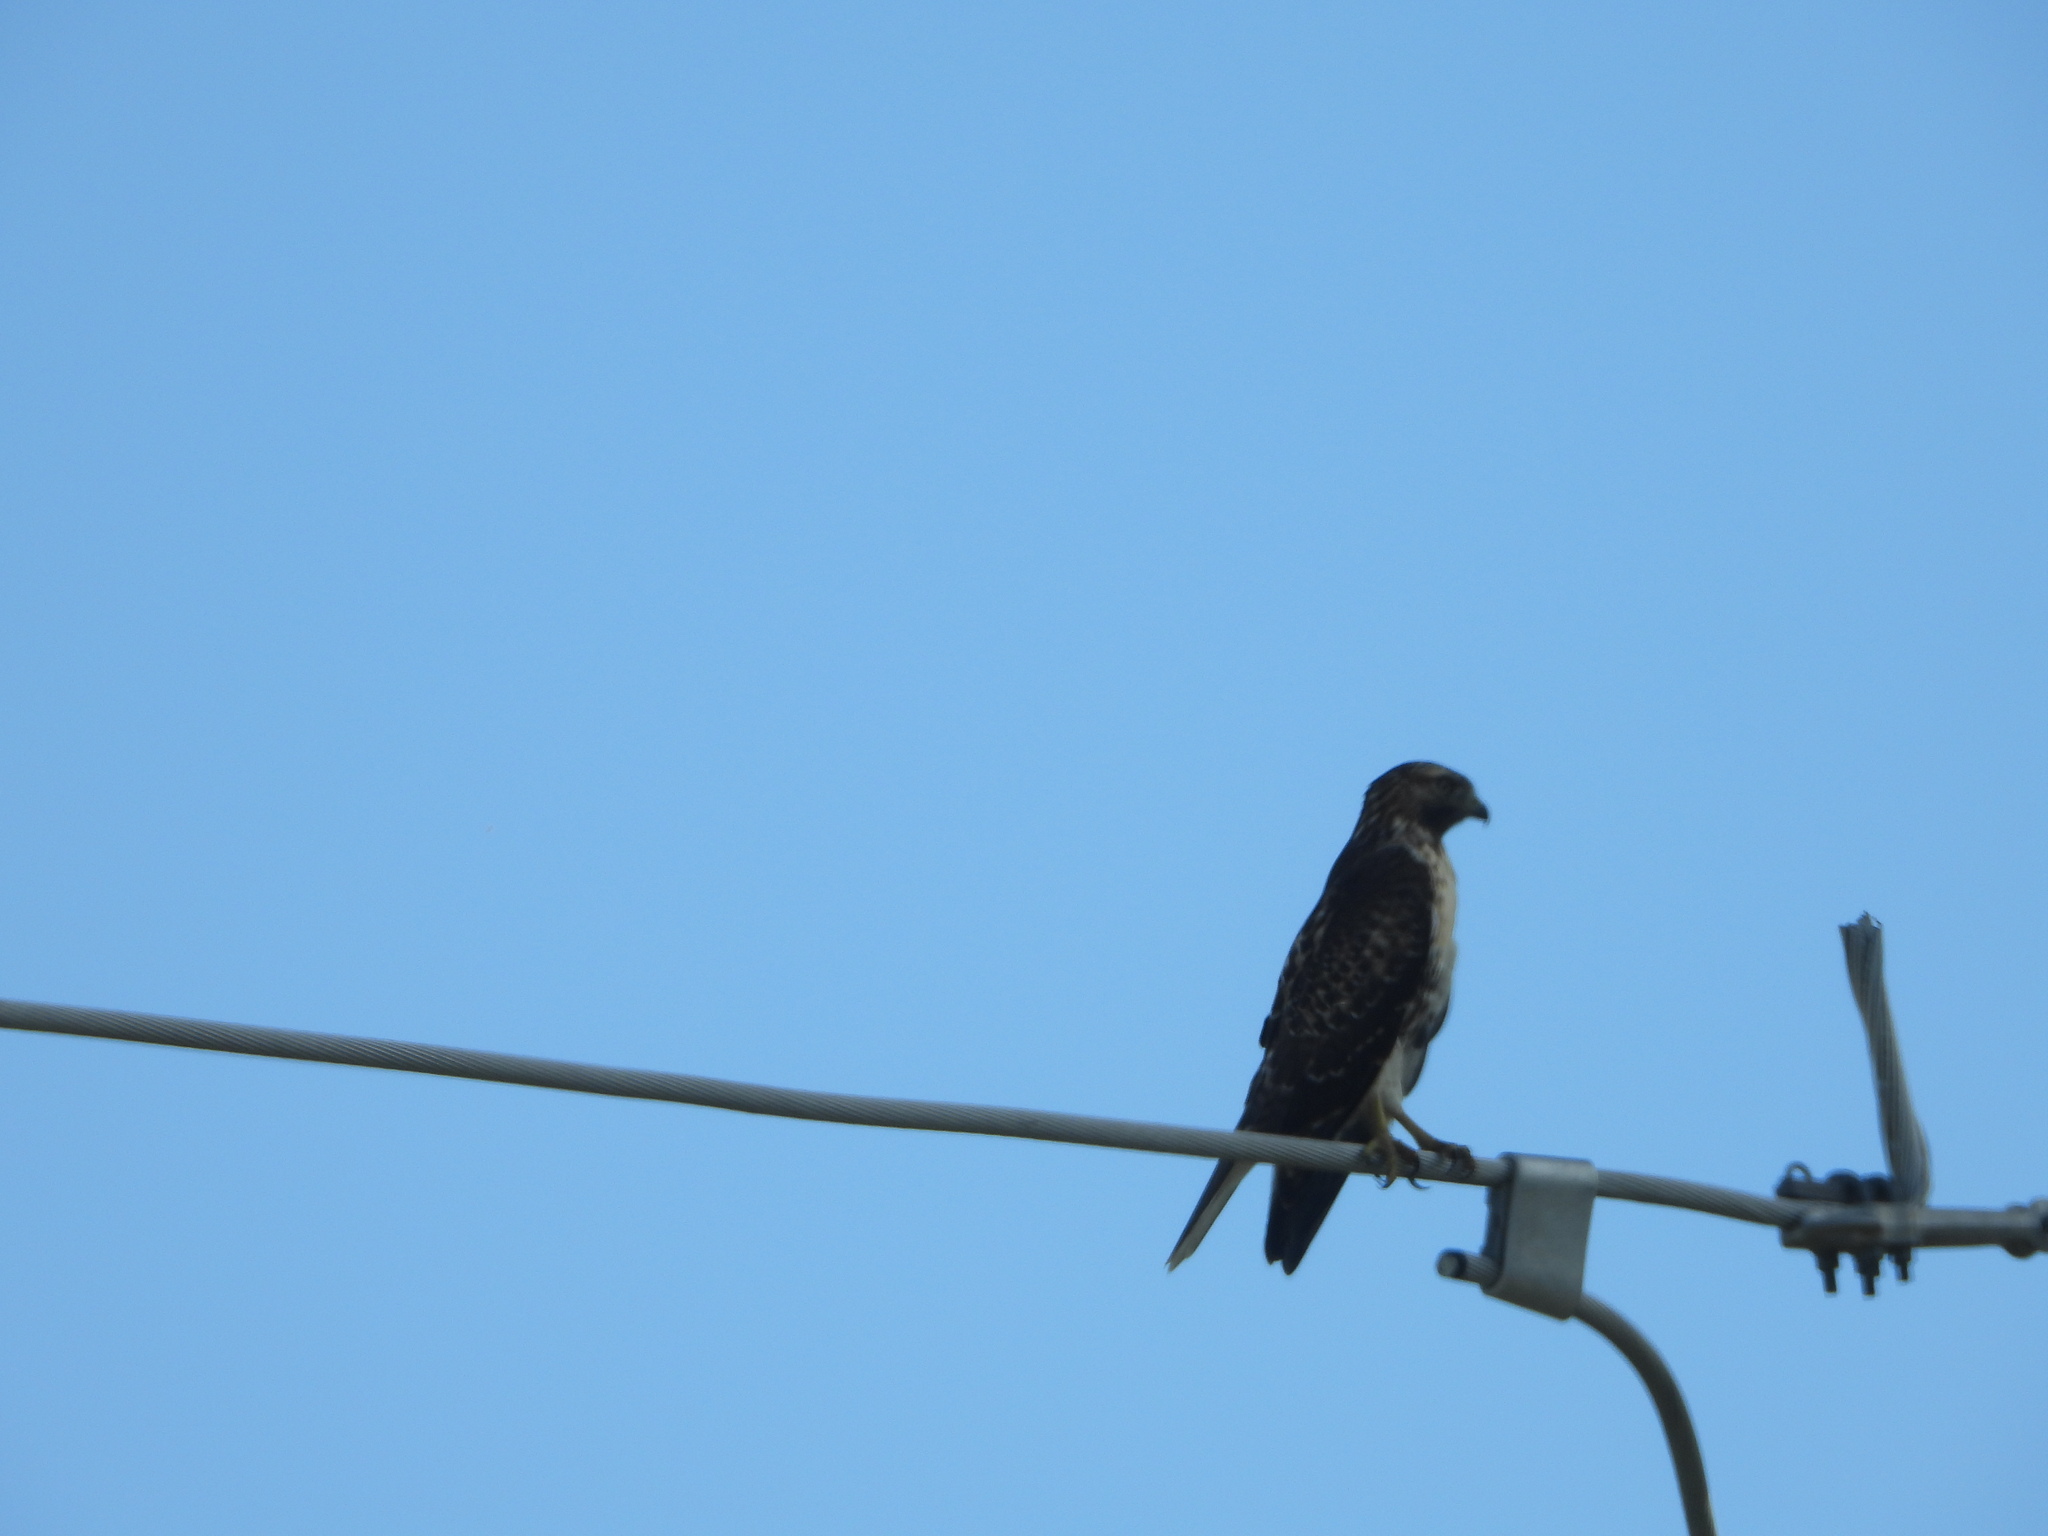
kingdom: Animalia
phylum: Chordata
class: Aves
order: Accipitriformes
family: Accipitridae
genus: Buteo
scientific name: Buteo jamaicensis
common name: Red-tailed hawk
